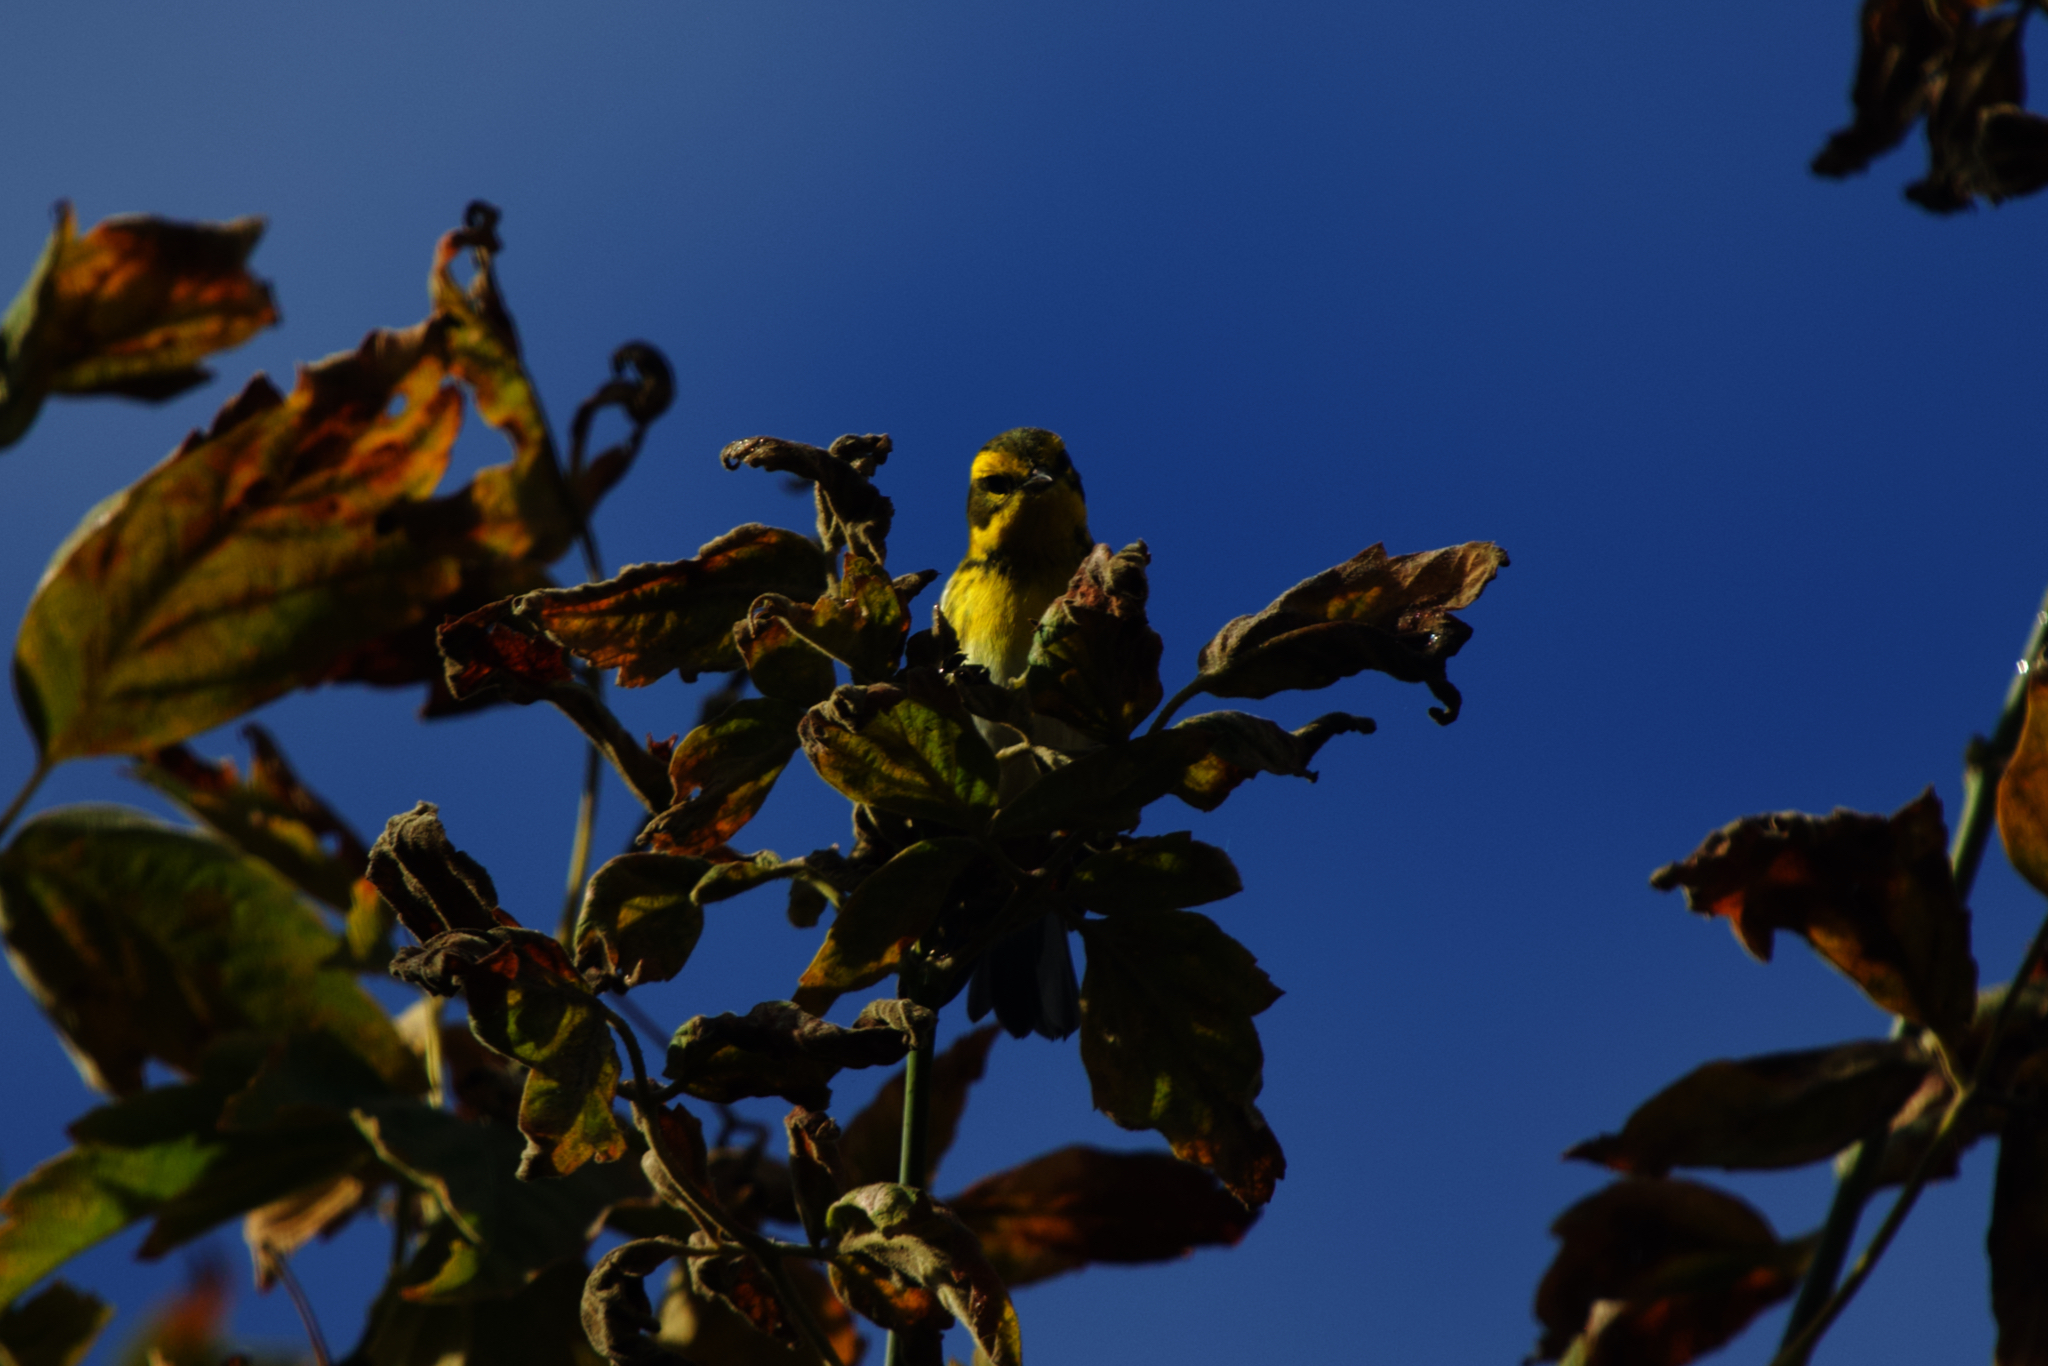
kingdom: Animalia
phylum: Chordata
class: Aves
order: Passeriformes
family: Parulidae
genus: Setophaga
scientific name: Setophaga townsendi
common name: Townsend's warbler
